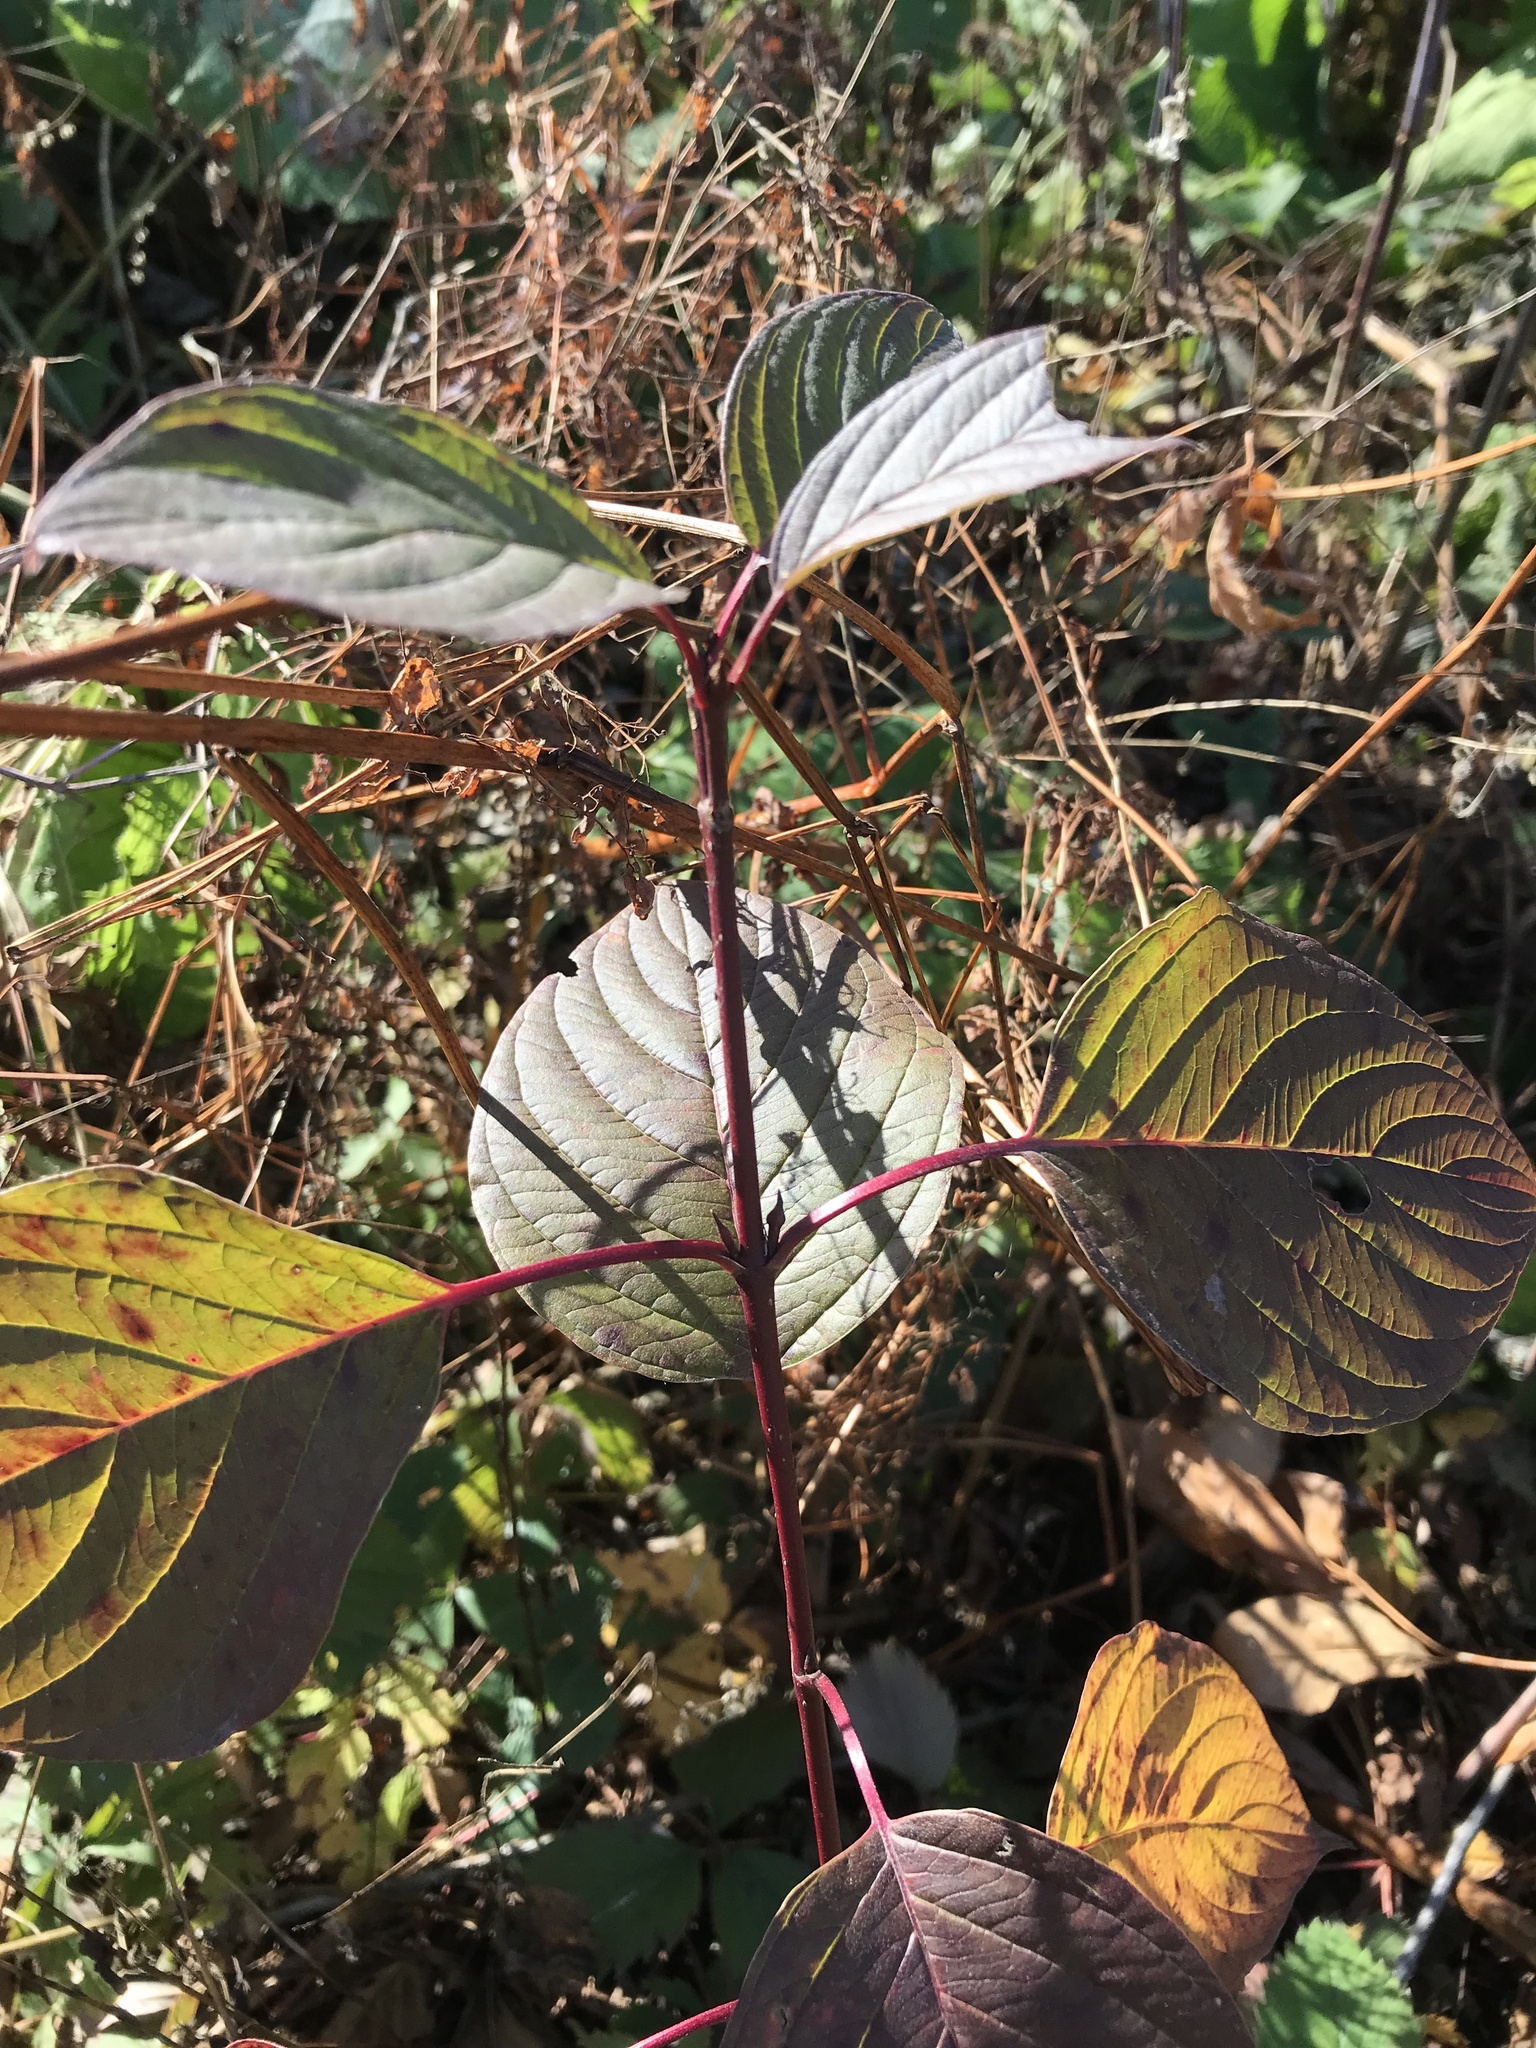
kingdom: Plantae
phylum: Tracheophyta
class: Magnoliopsida
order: Cornales
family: Cornaceae
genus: Cornus
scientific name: Cornus sericea
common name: Red-osier dogwood
